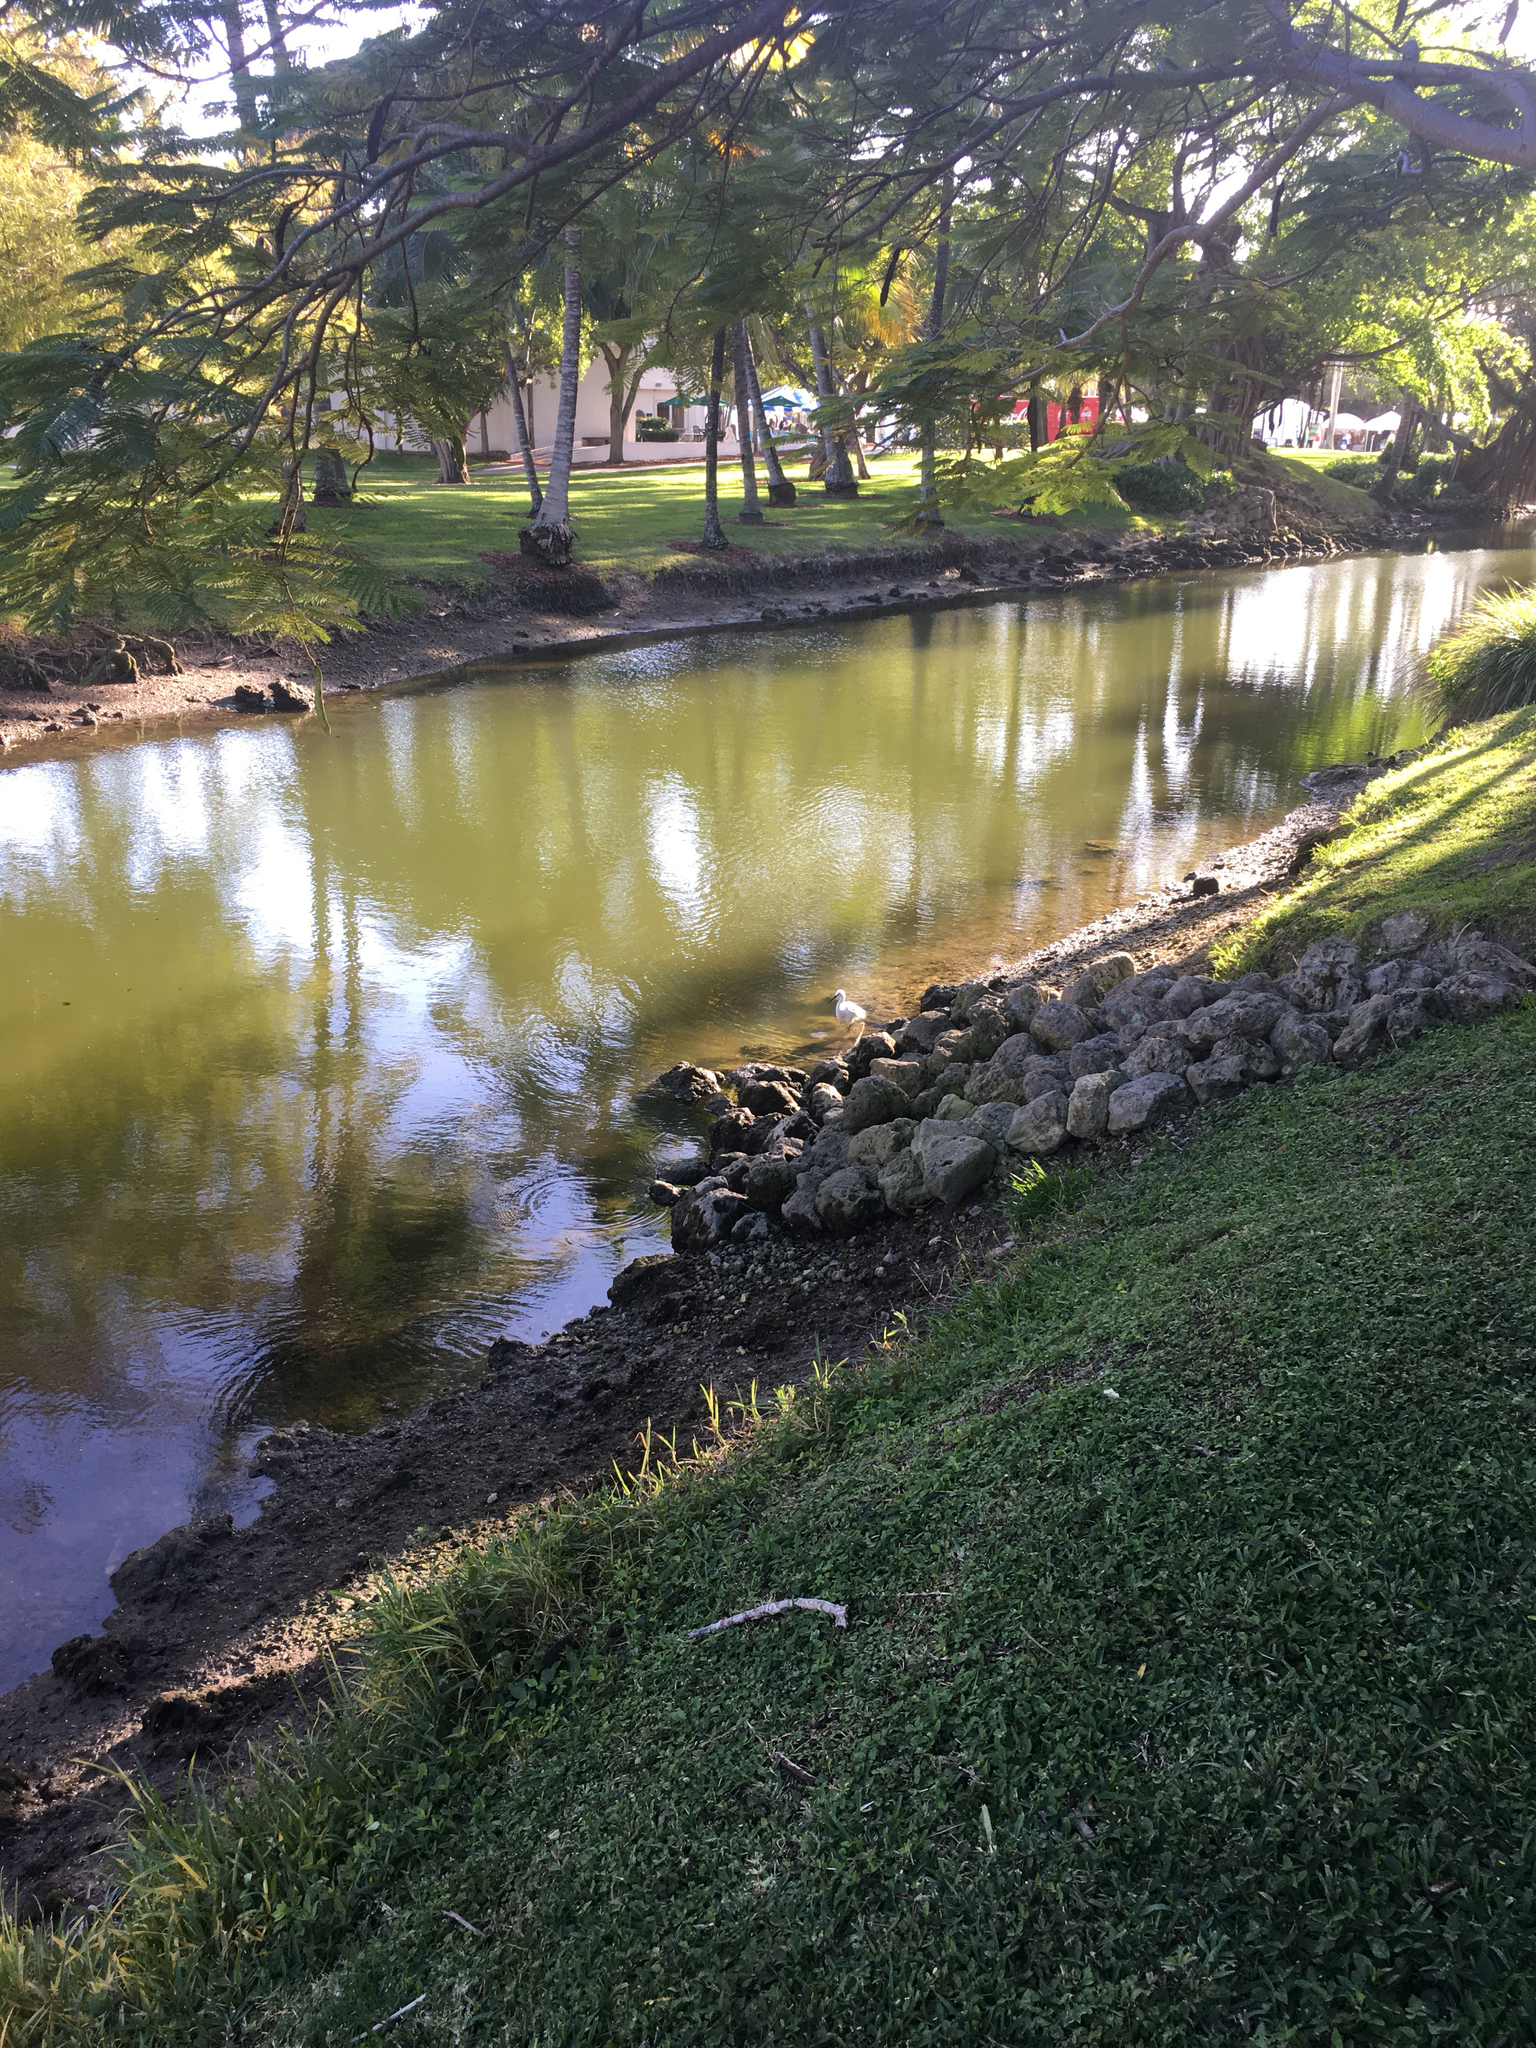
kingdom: Animalia
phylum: Chordata
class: Aves
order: Pelecaniformes
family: Ardeidae
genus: Egretta
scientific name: Egretta thula
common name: Snowy egret
